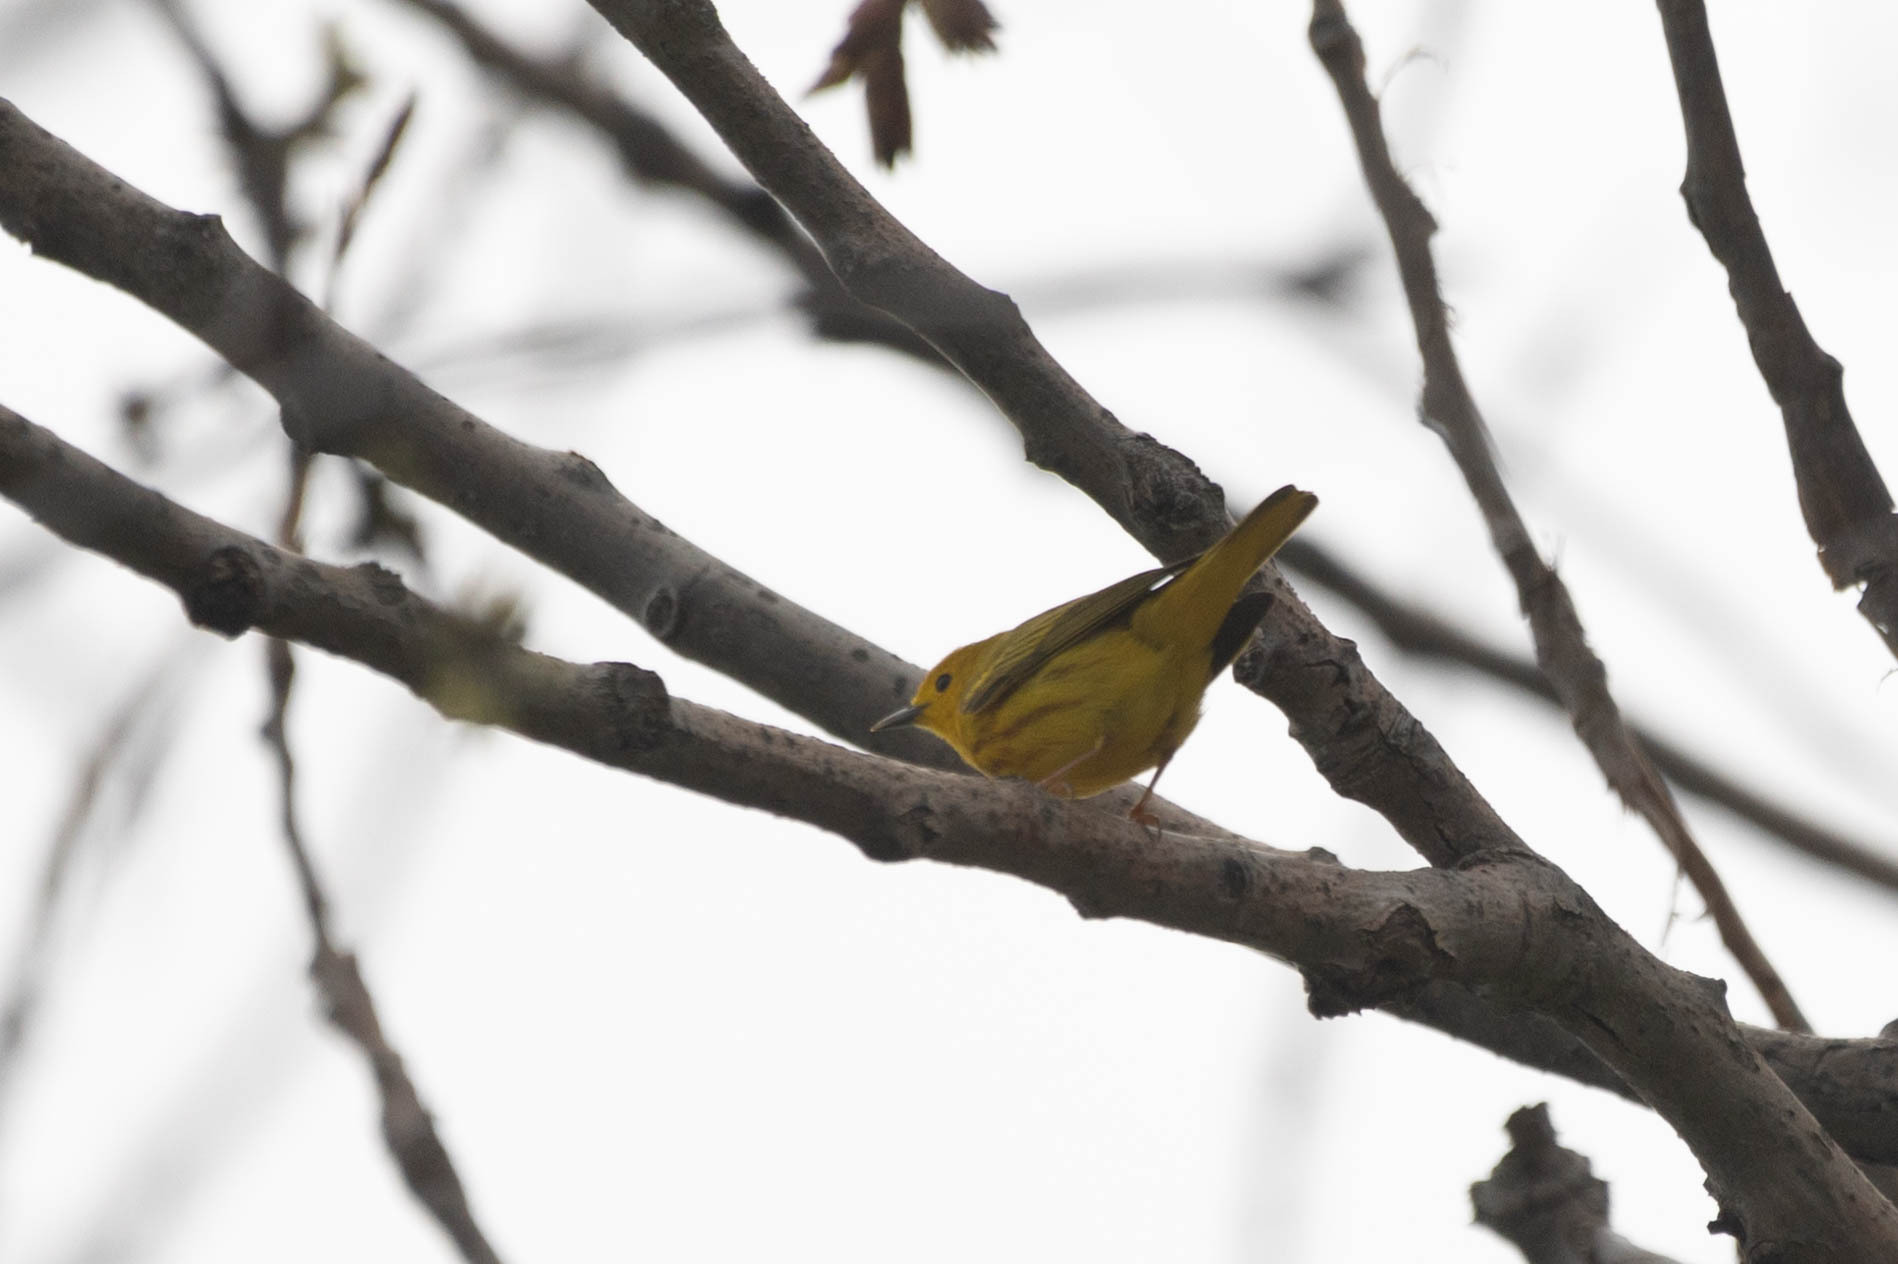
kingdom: Animalia
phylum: Chordata
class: Aves
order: Passeriformes
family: Parulidae
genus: Setophaga
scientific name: Setophaga petechia
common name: Yellow warbler
